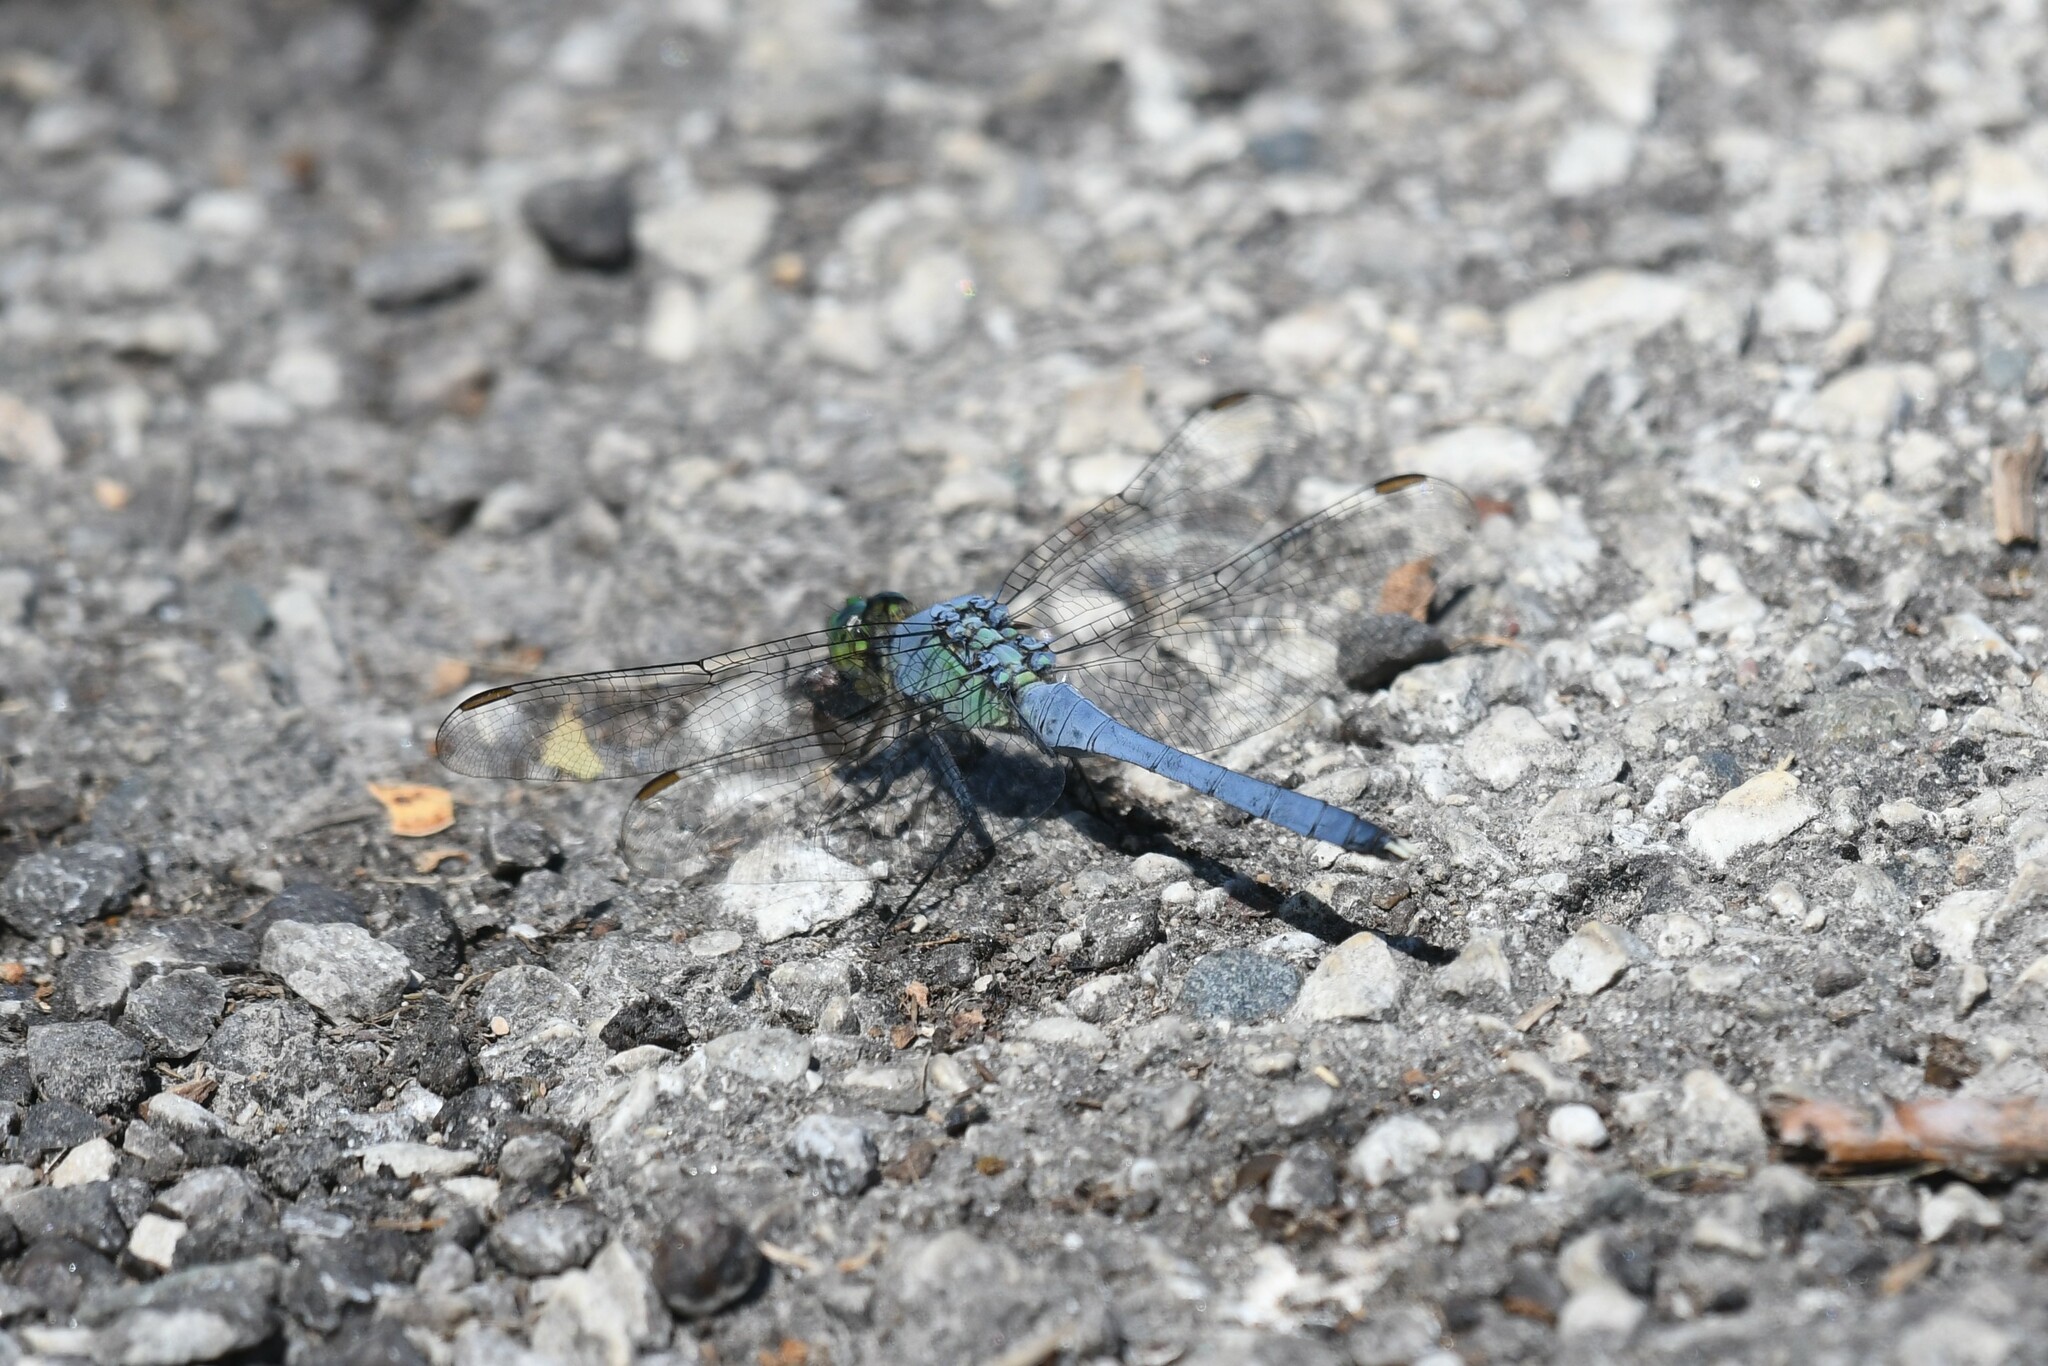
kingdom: Animalia
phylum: Arthropoda
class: Insecta
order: Odonata
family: Libellulidae
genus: Erythemis
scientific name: Erythemis simplicicollis
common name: Eastern pondhawk
